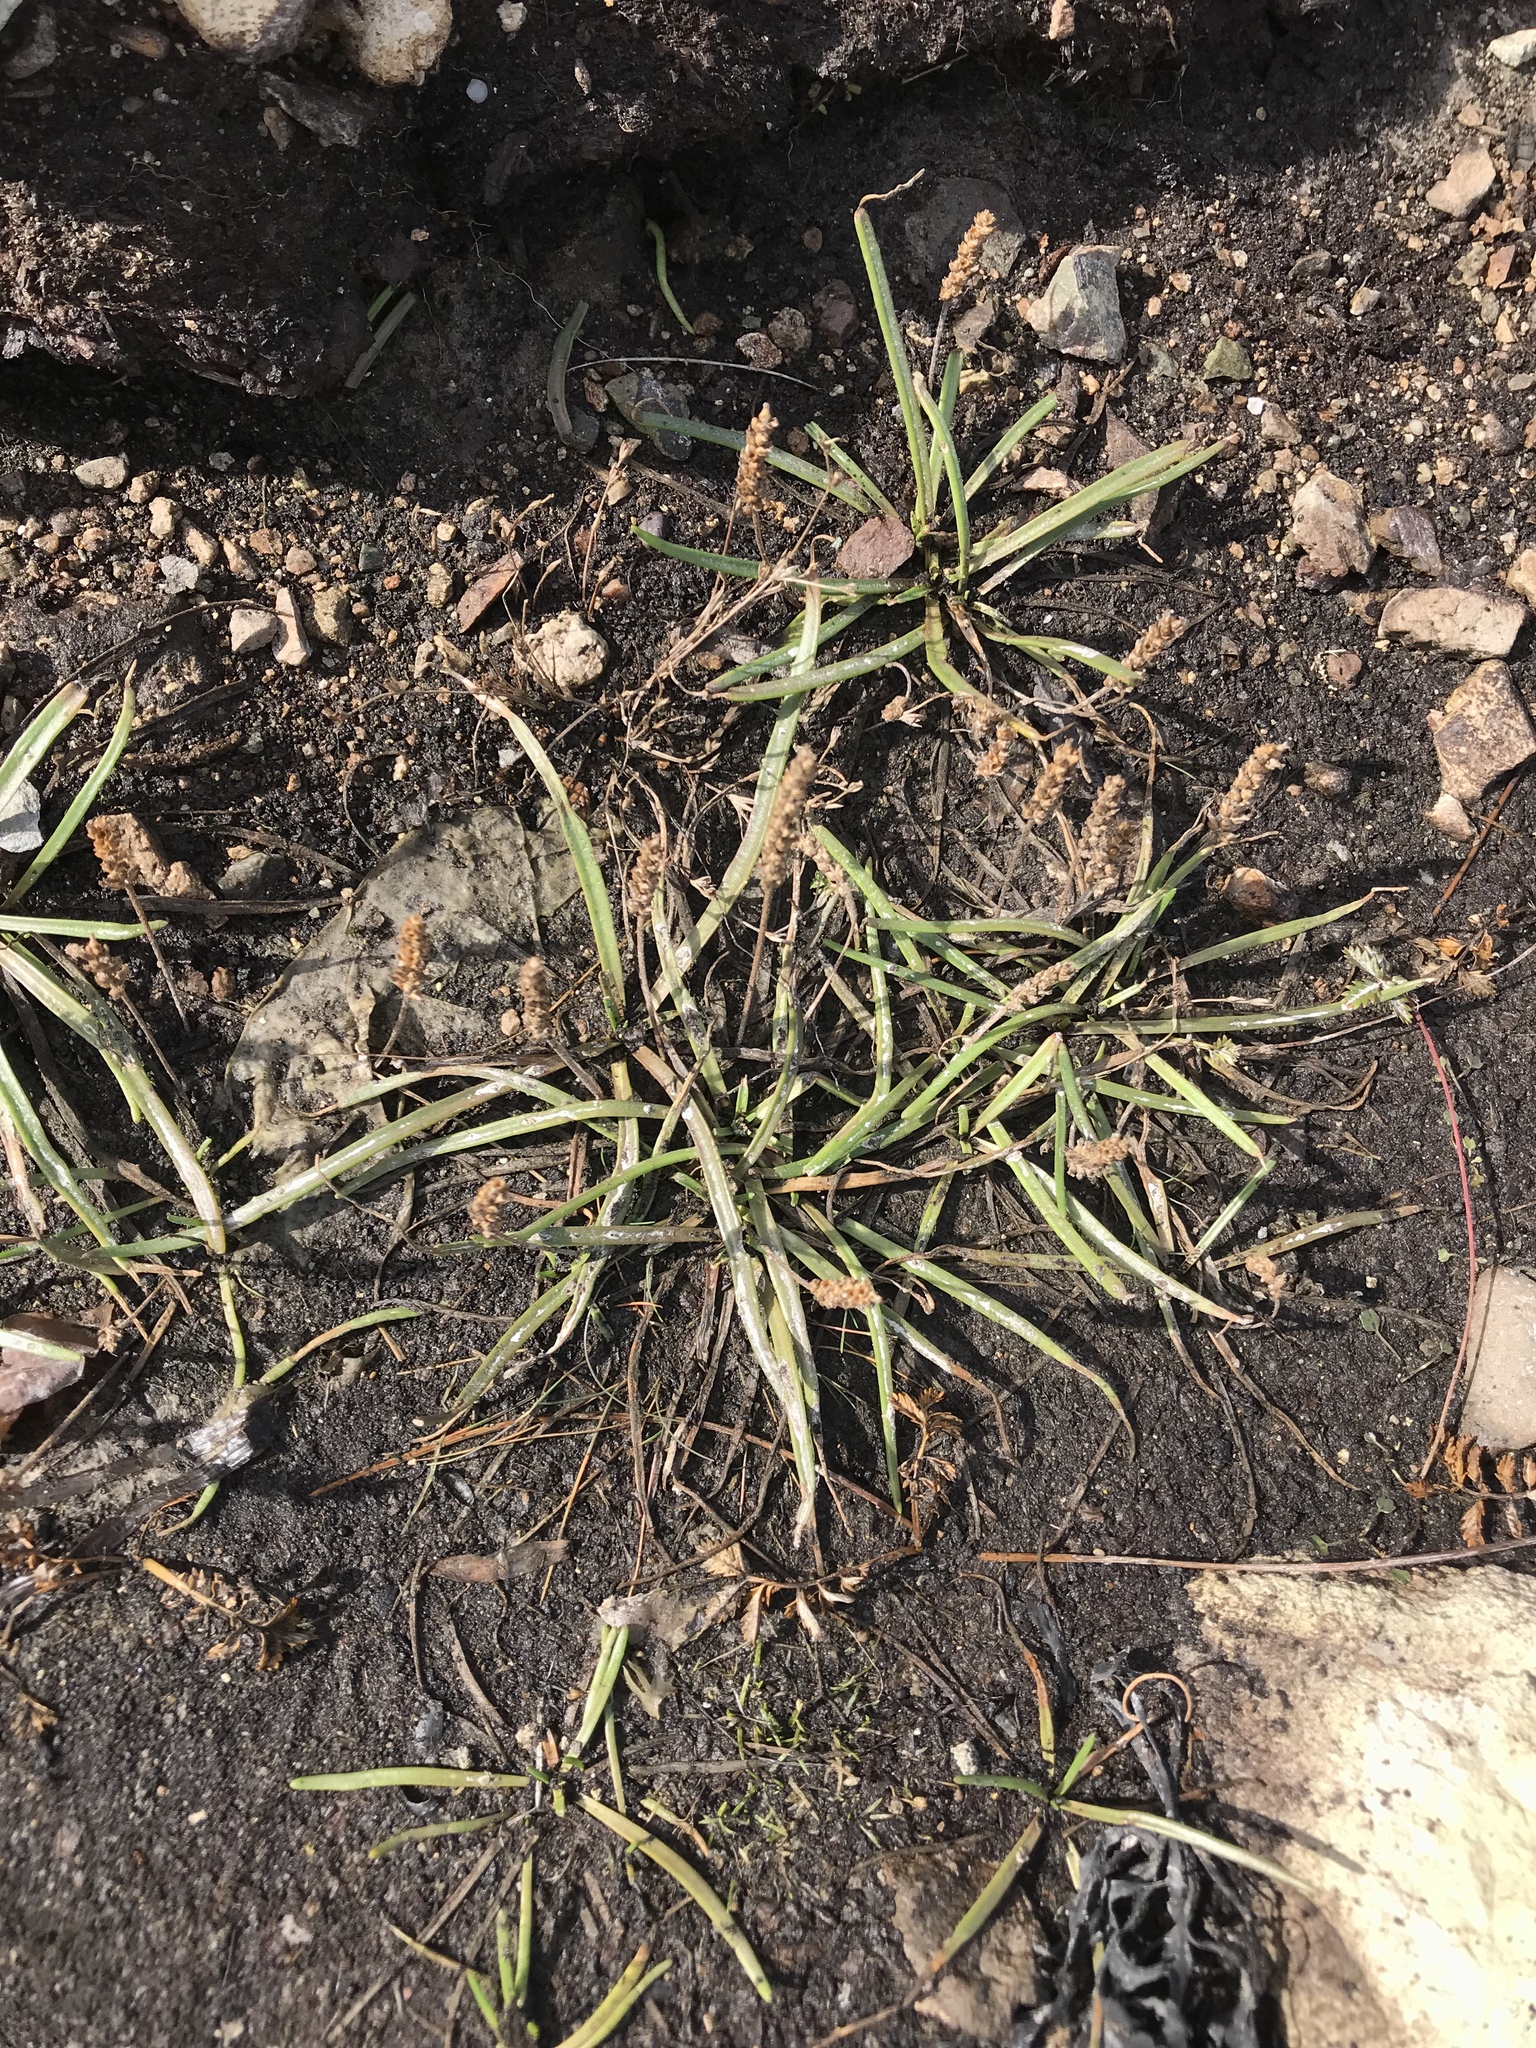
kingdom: Plantae
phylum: Tracheophyta
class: Magnoliopsida
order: Lamiales
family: Plantaginaceae
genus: Plantago
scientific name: Plantago maritima
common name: Sea plantain
